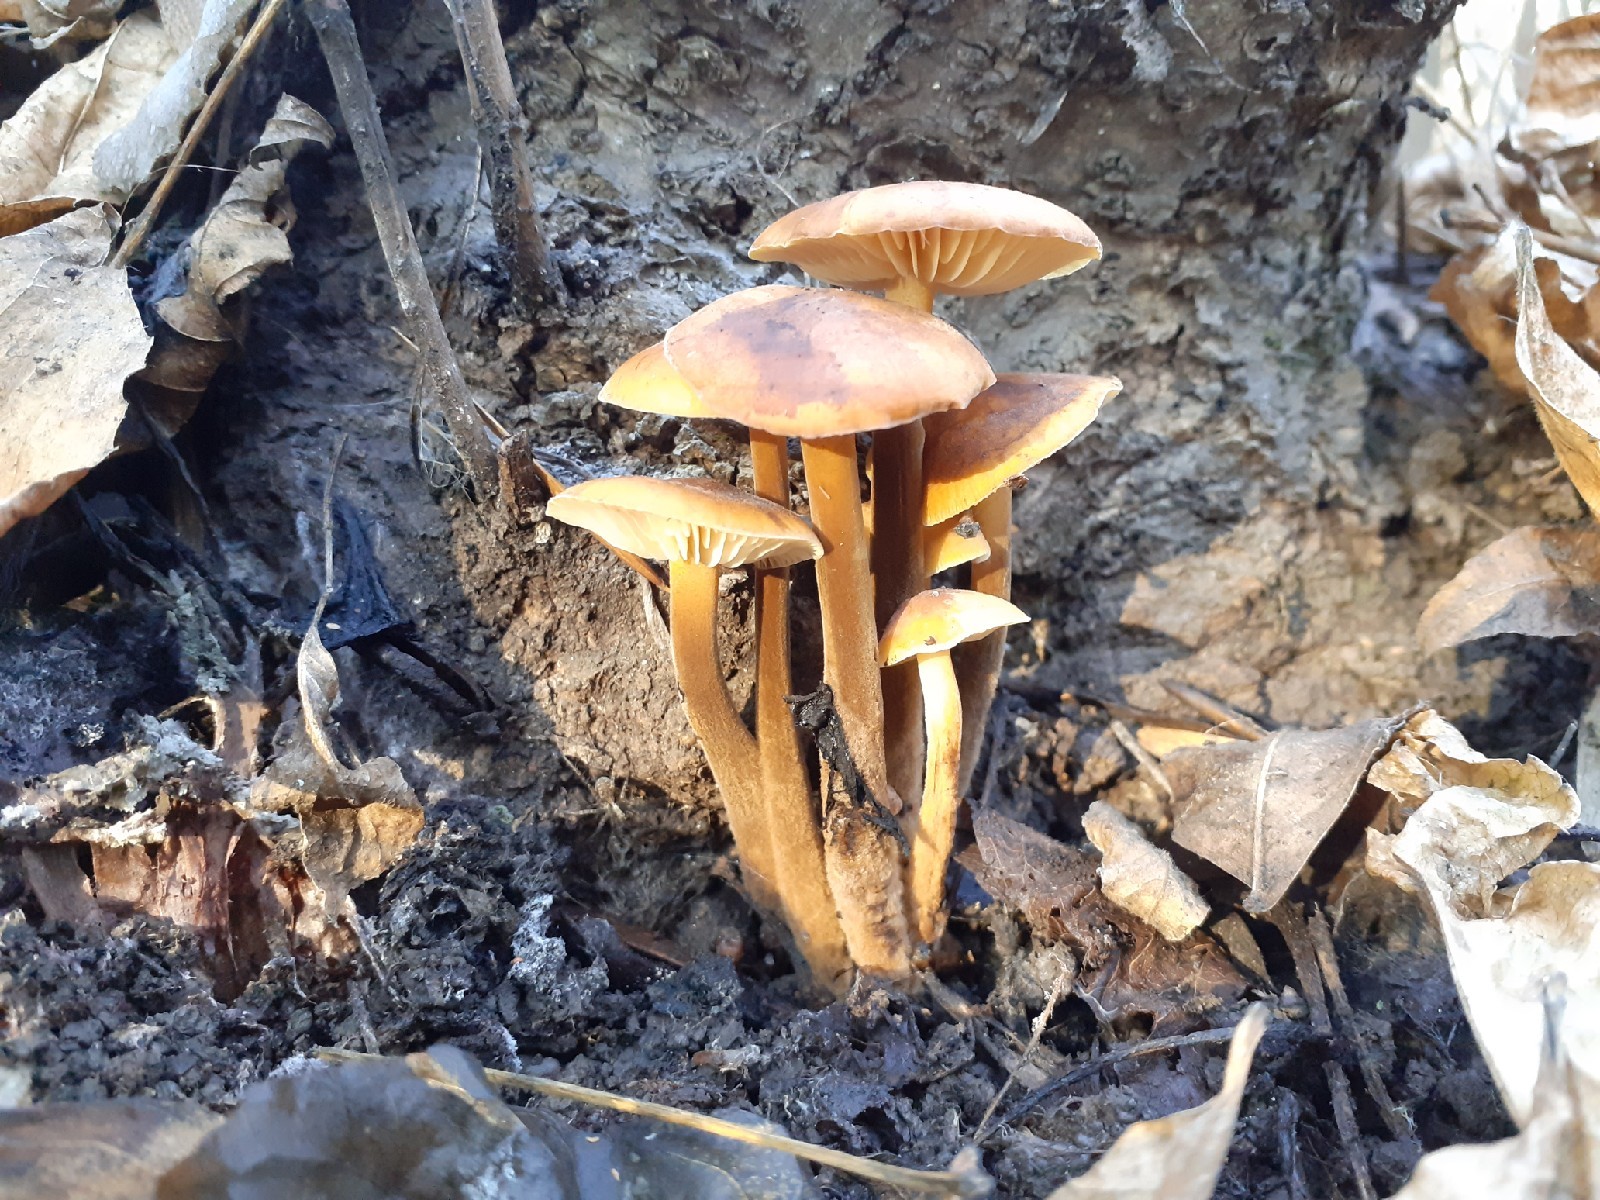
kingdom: Fungi
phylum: Basidiomycota
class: Agaricomycetes
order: Agaricales
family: Physalacriaceae
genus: Flammulina
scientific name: Flammulina
